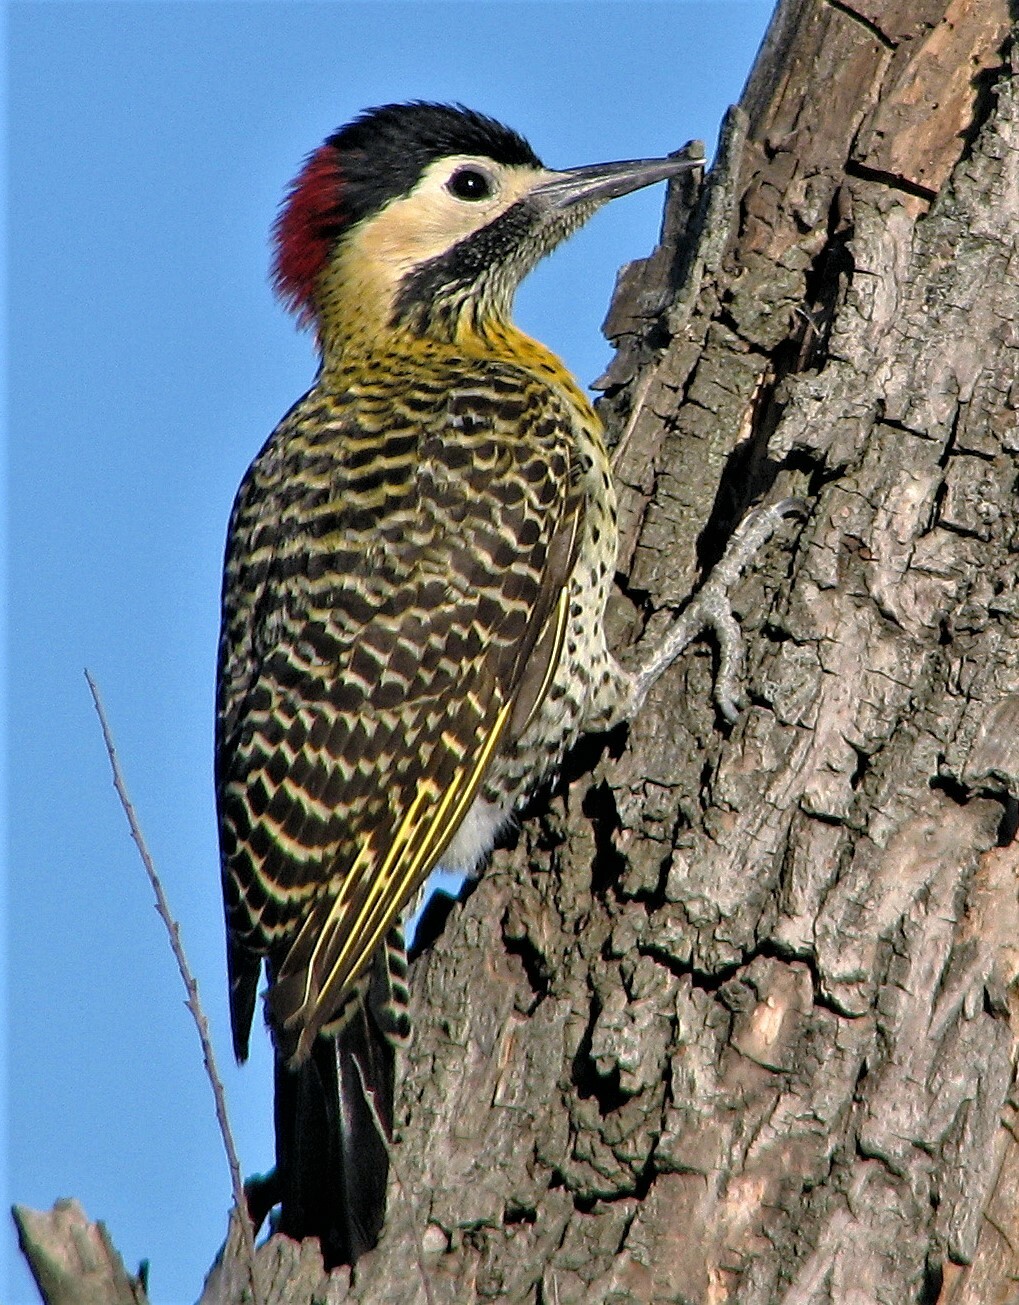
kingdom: Animalia
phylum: Chordata
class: Aves
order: Piciformes
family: Picidae
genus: Colaptes
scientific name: Colaptes melanochloros
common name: Green-barred woodpecker
